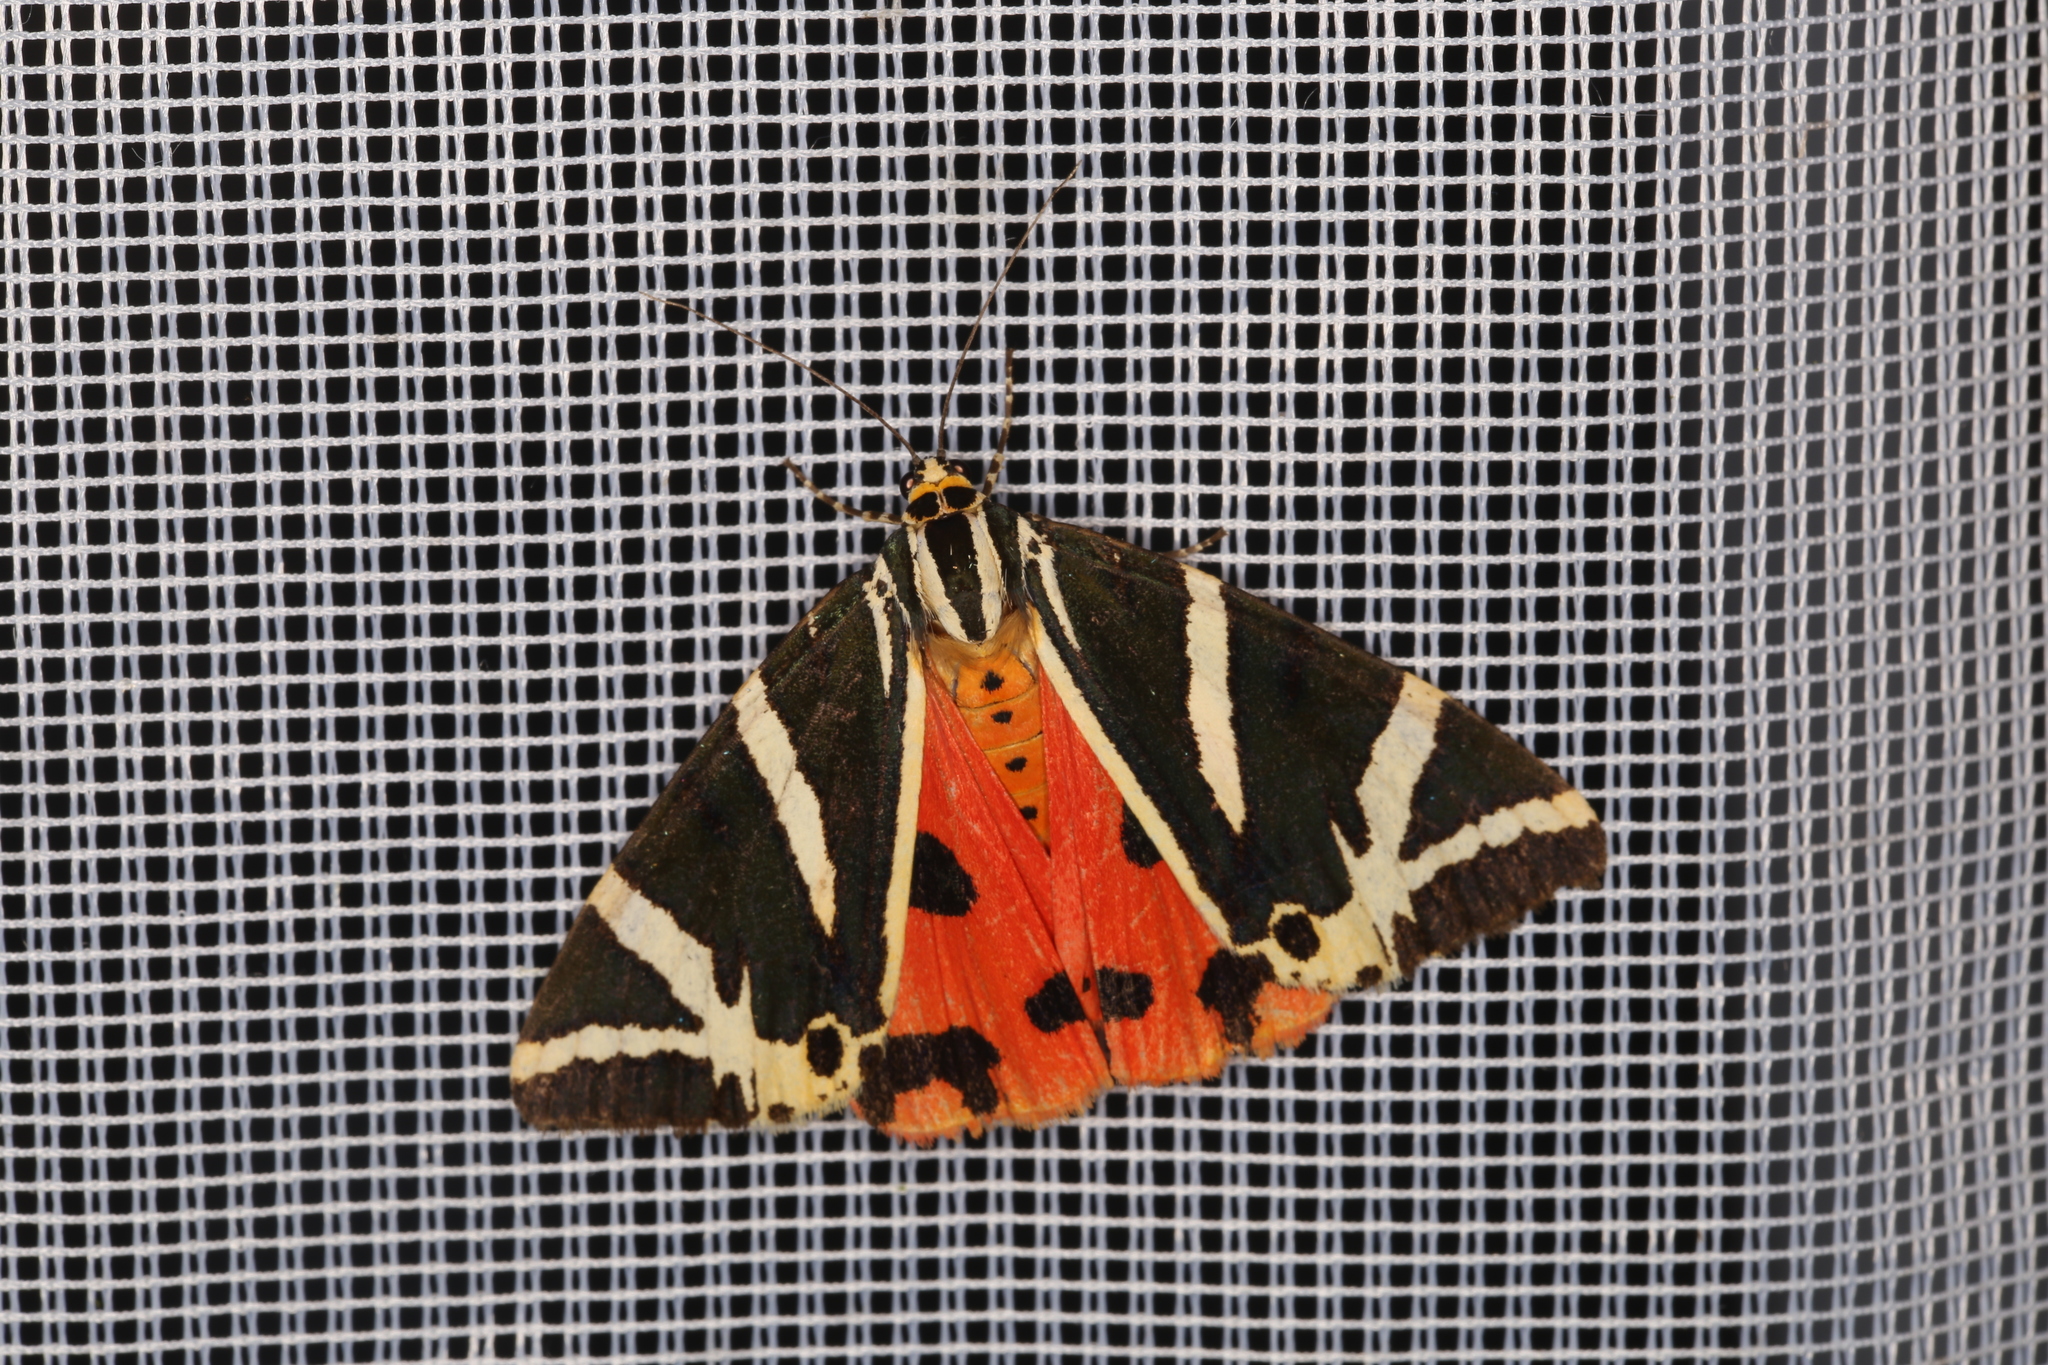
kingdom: Animalia
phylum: Arthropoda
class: Insecta
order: Lepidoptera
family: Erebidae
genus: Euplagia
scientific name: Euplagia quadripunctaria
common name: Jersey tiger
